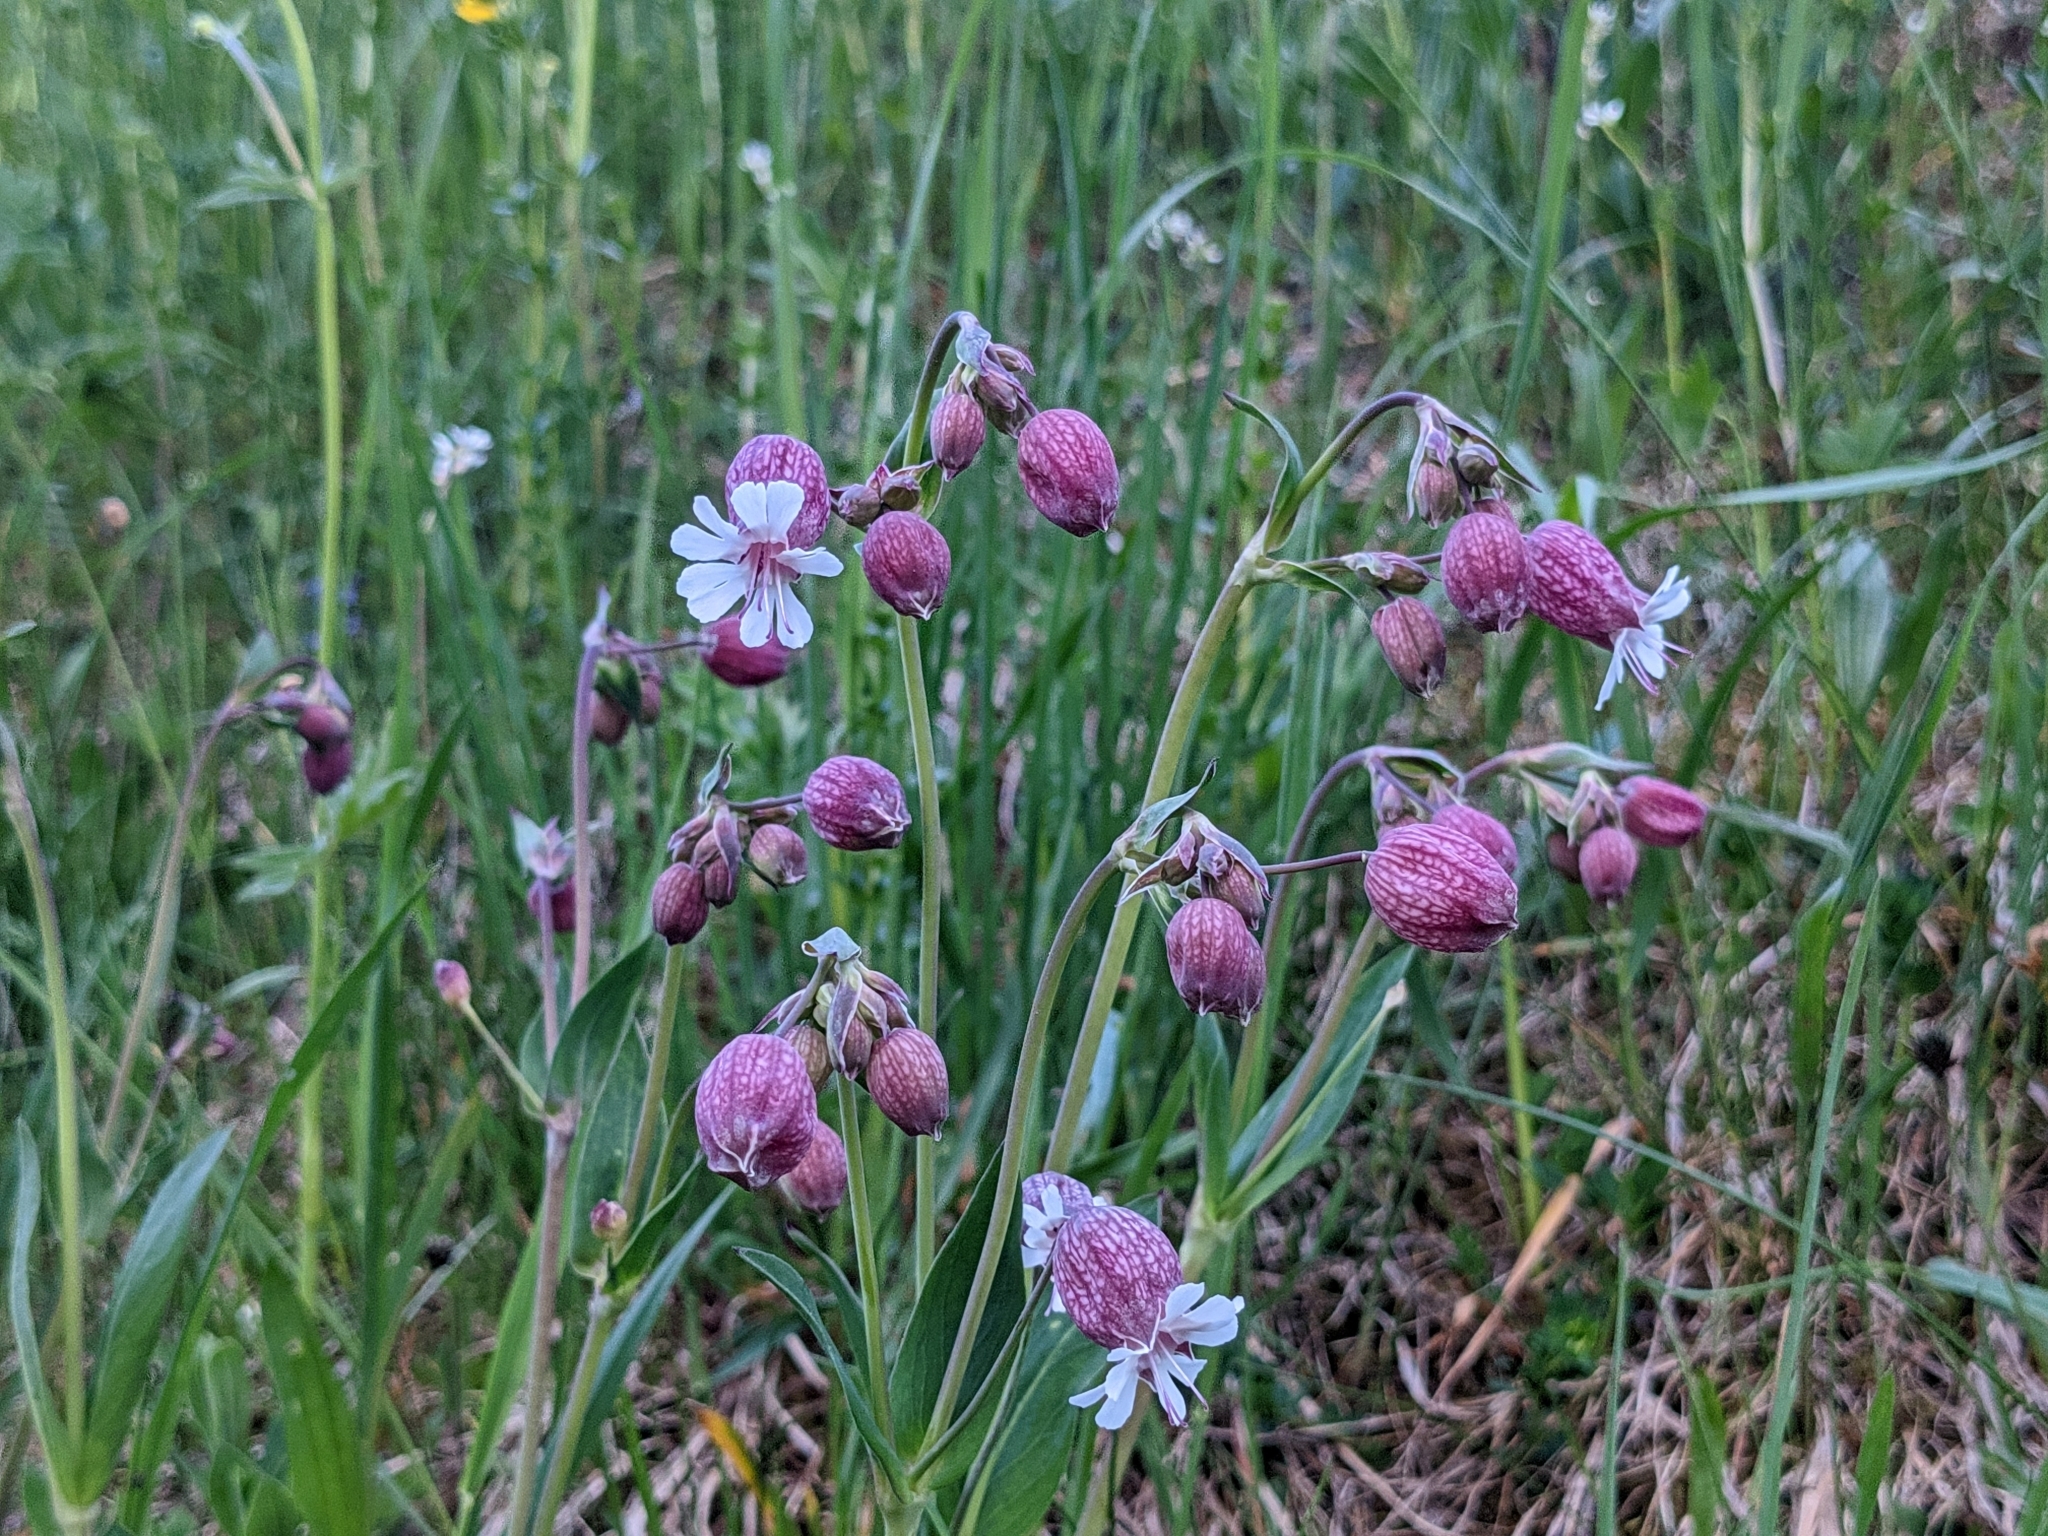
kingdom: Plantae
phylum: Tracheophyta
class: Magnoliopsida
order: Caryophyllales
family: Caryophyllaceae
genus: Silene
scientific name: Silene vulgaris
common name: Bladder campion
